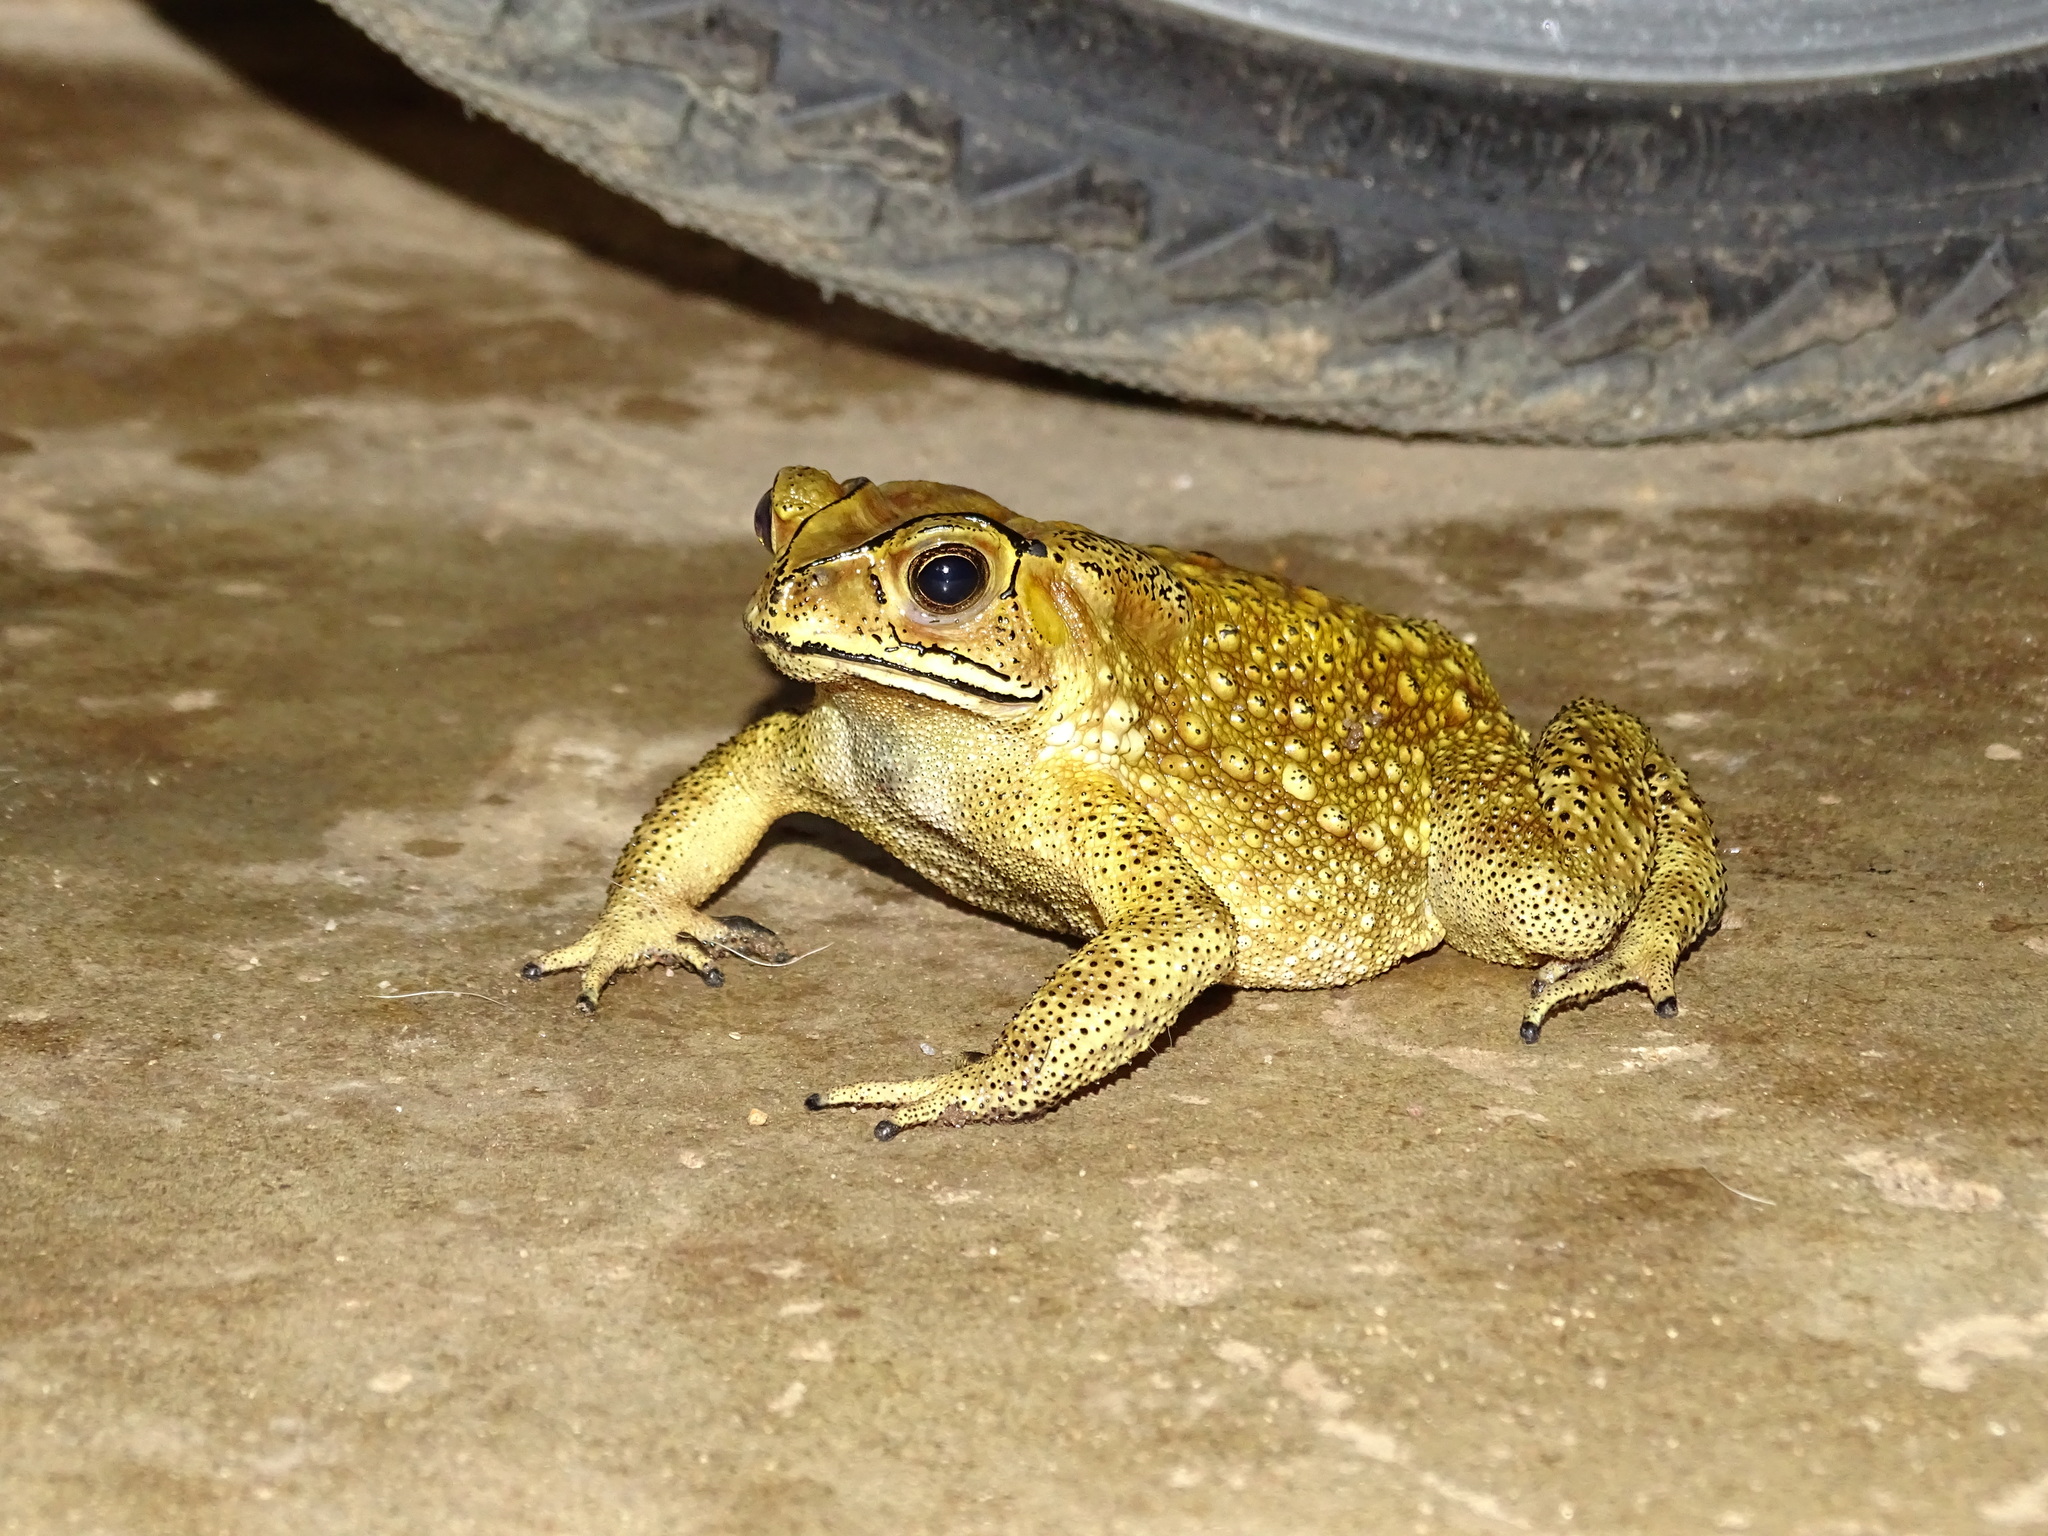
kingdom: Animalia
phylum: Chordata
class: Amphibia
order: Anura
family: Bufonidae
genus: Duttaphrynus
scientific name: Duttaphrynus melanostictus
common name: Common sunda toad
